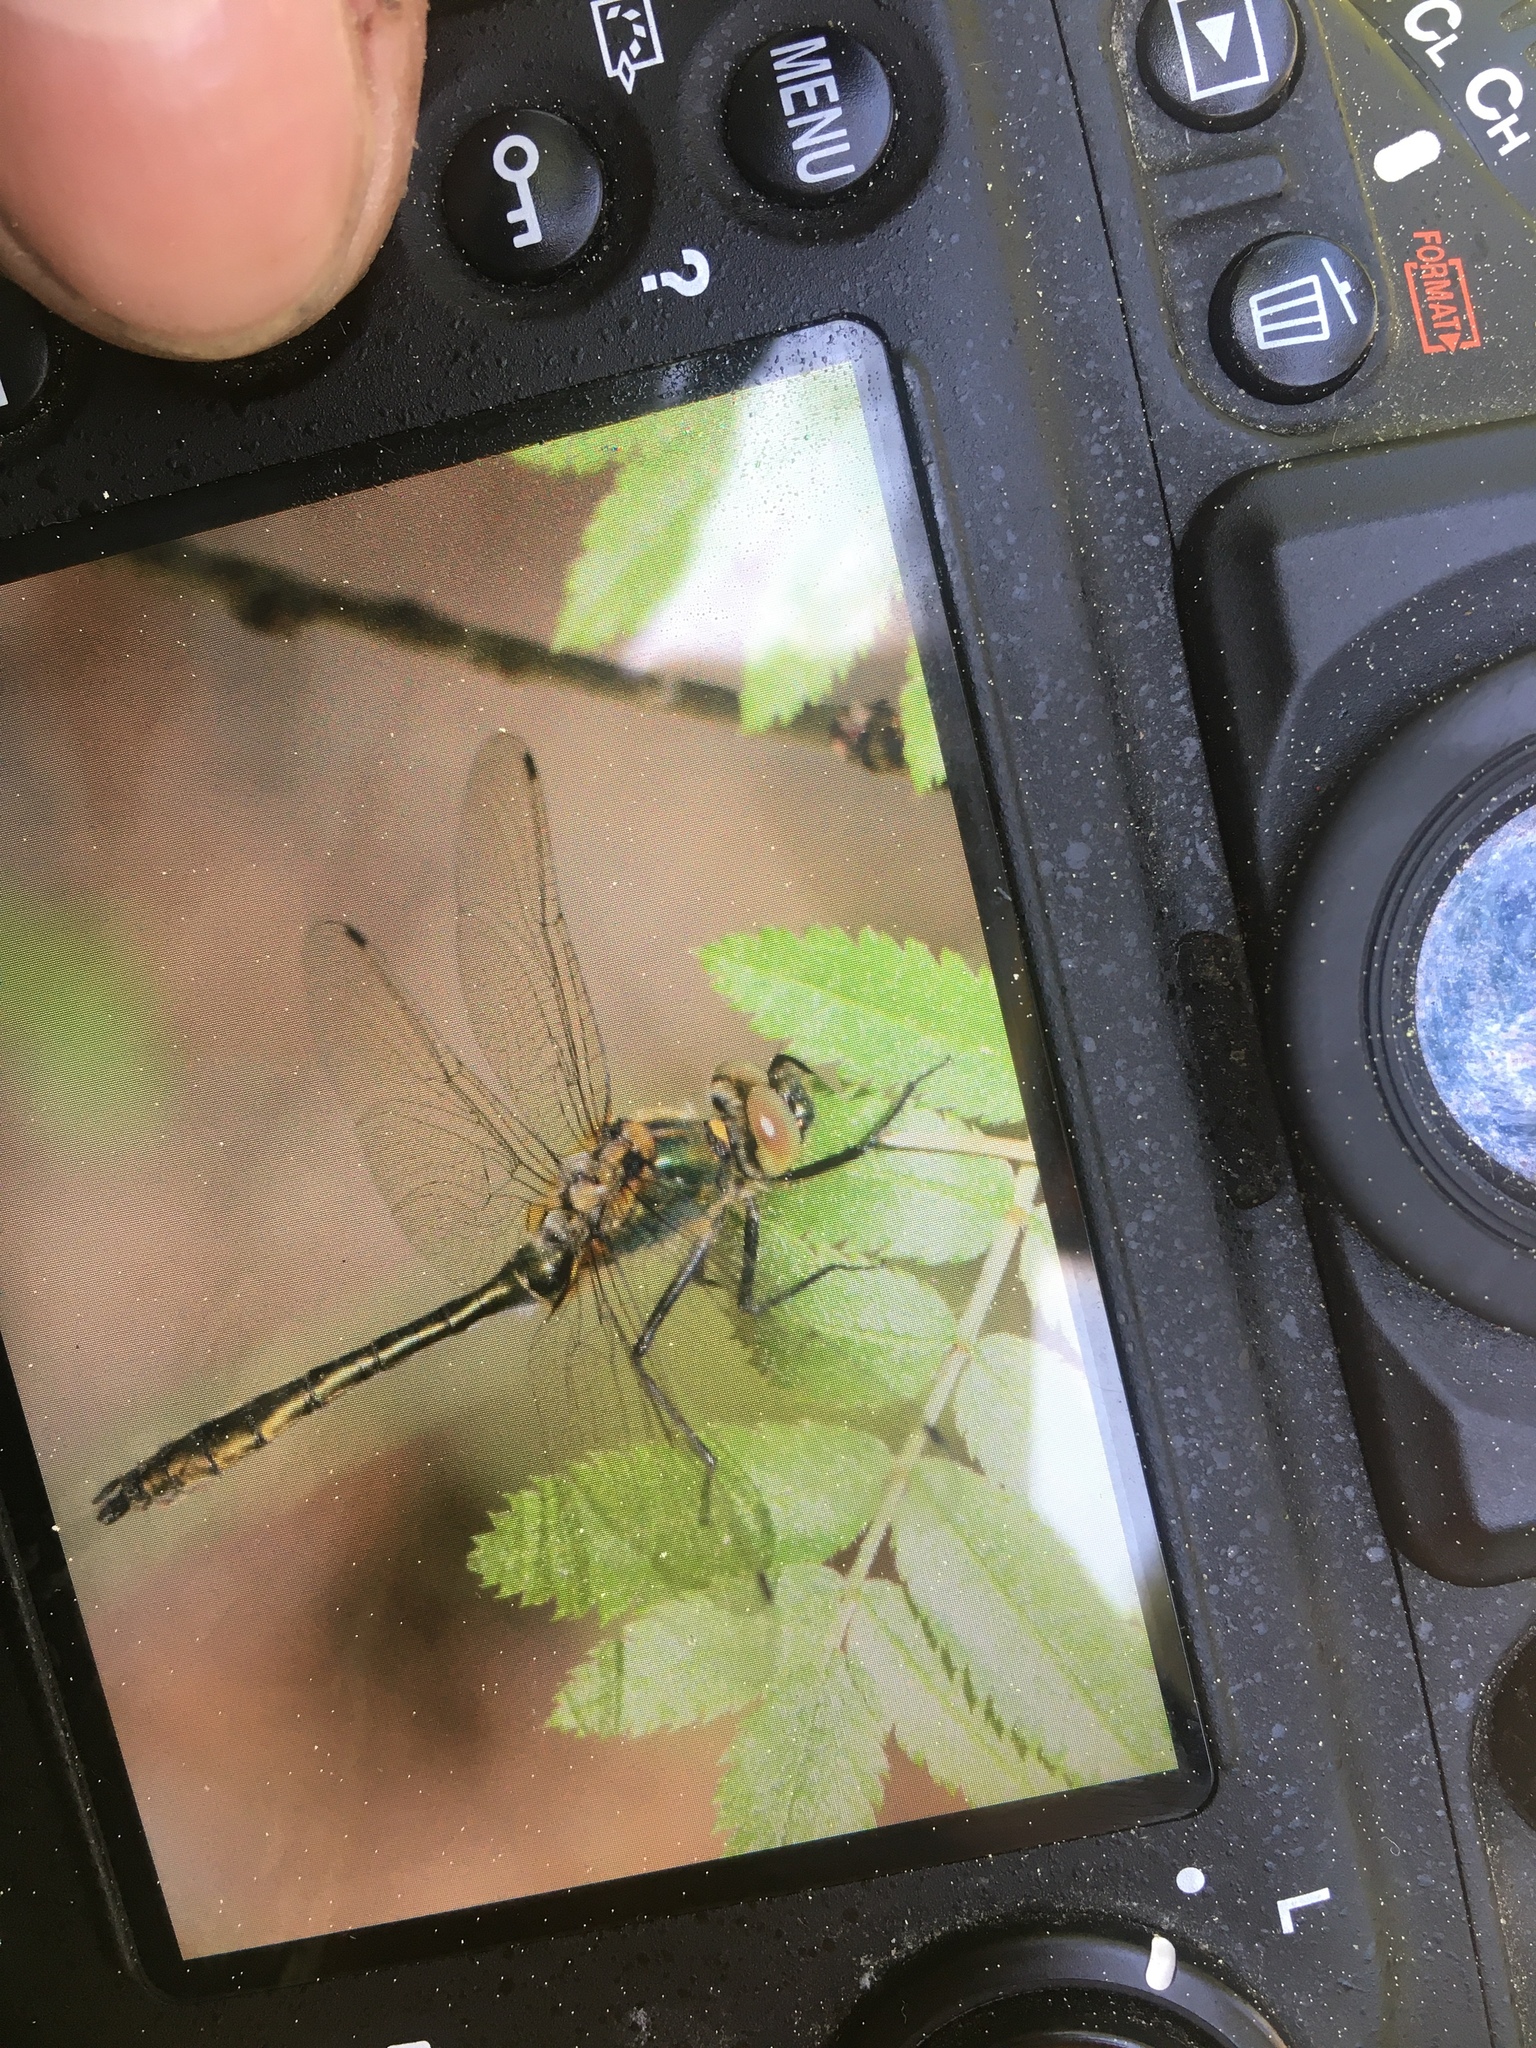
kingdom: Animalia
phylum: Arthropoda
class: Insecta
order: Odonata
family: Corduliidae
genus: Cordulia
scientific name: Cordulia aenea
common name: Downy emerald
